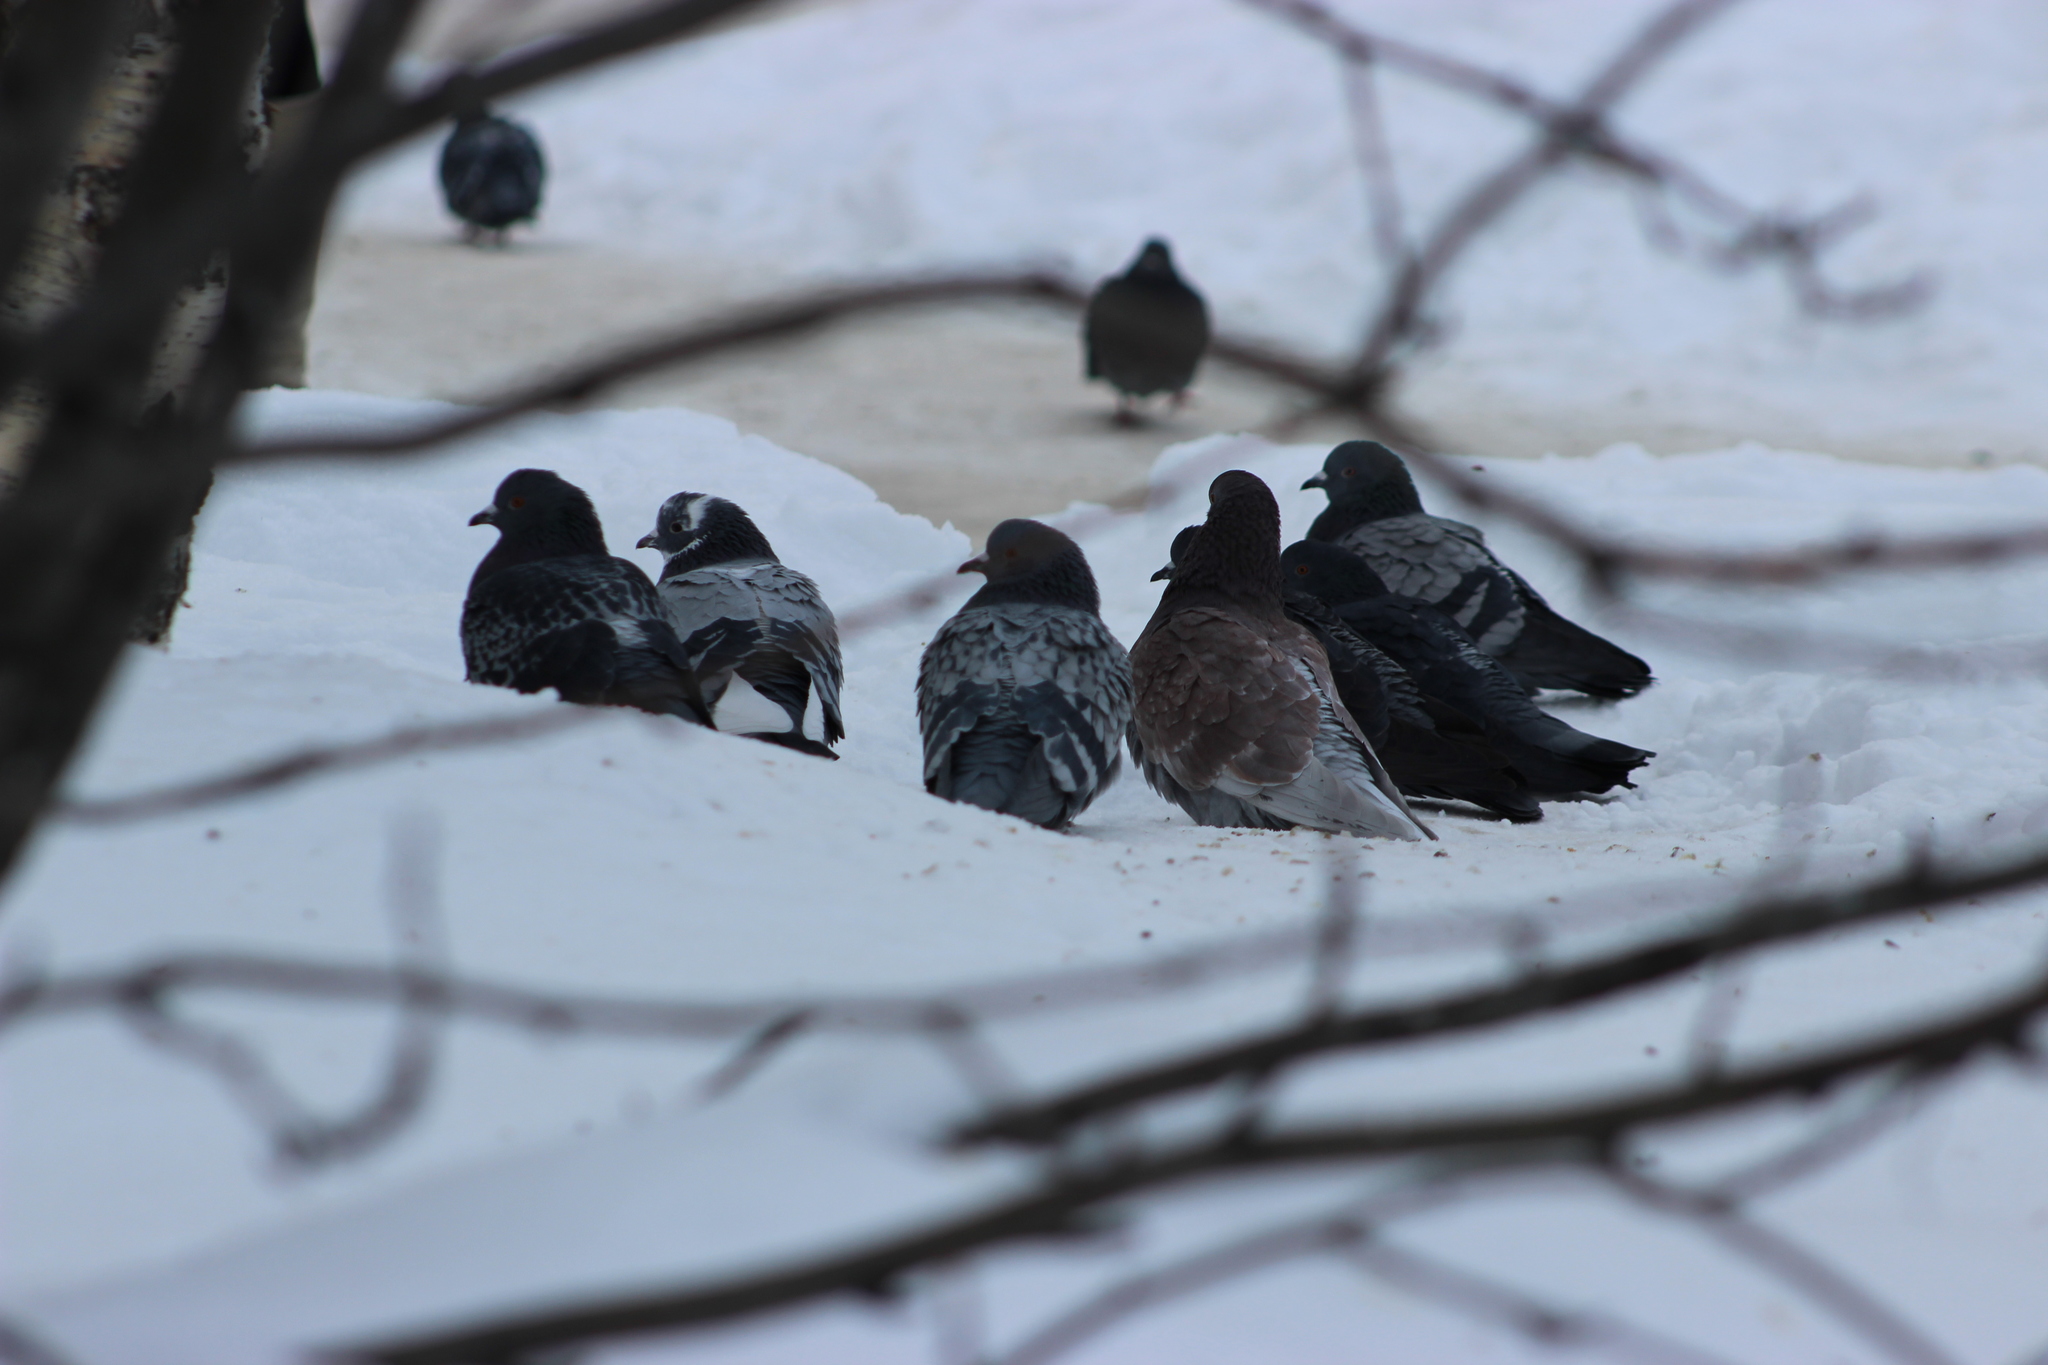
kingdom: Animalia
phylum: Chordata
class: Aves
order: Columbiformes
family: Columbidae
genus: Columba
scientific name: Columba livia
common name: Rock pigeon
